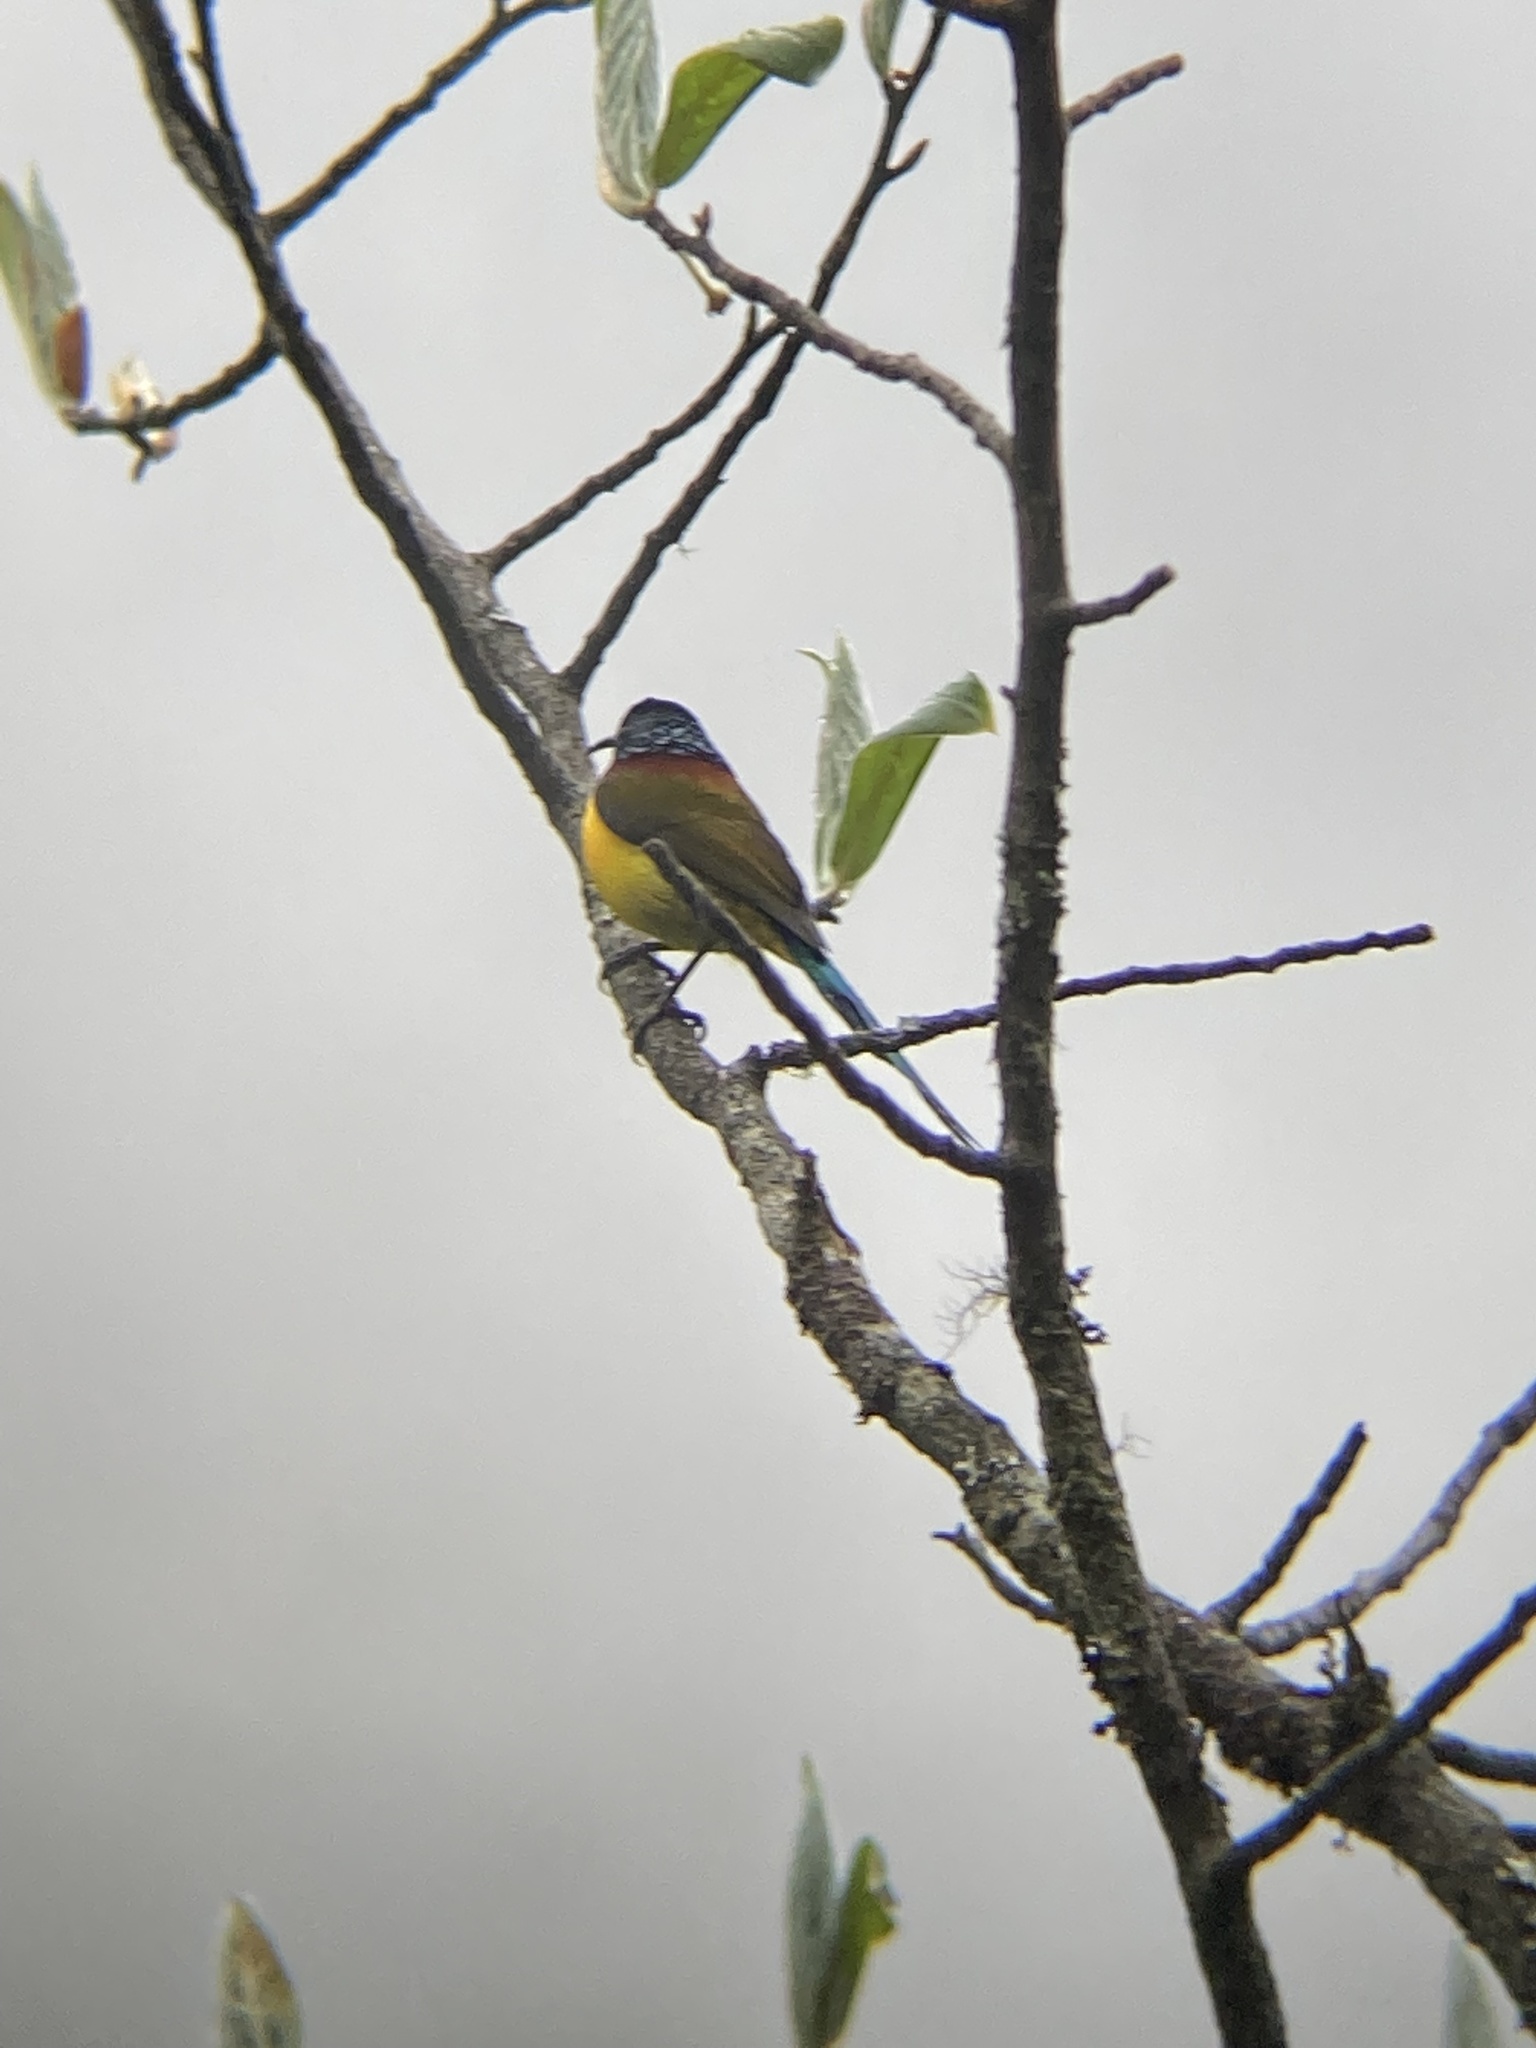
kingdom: Animalia
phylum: Chordata
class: Aves
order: Passeriformes
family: Nectariniidae
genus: Aethopyga
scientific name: Aethopyga nipalensis
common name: Green-tailed sunbird
